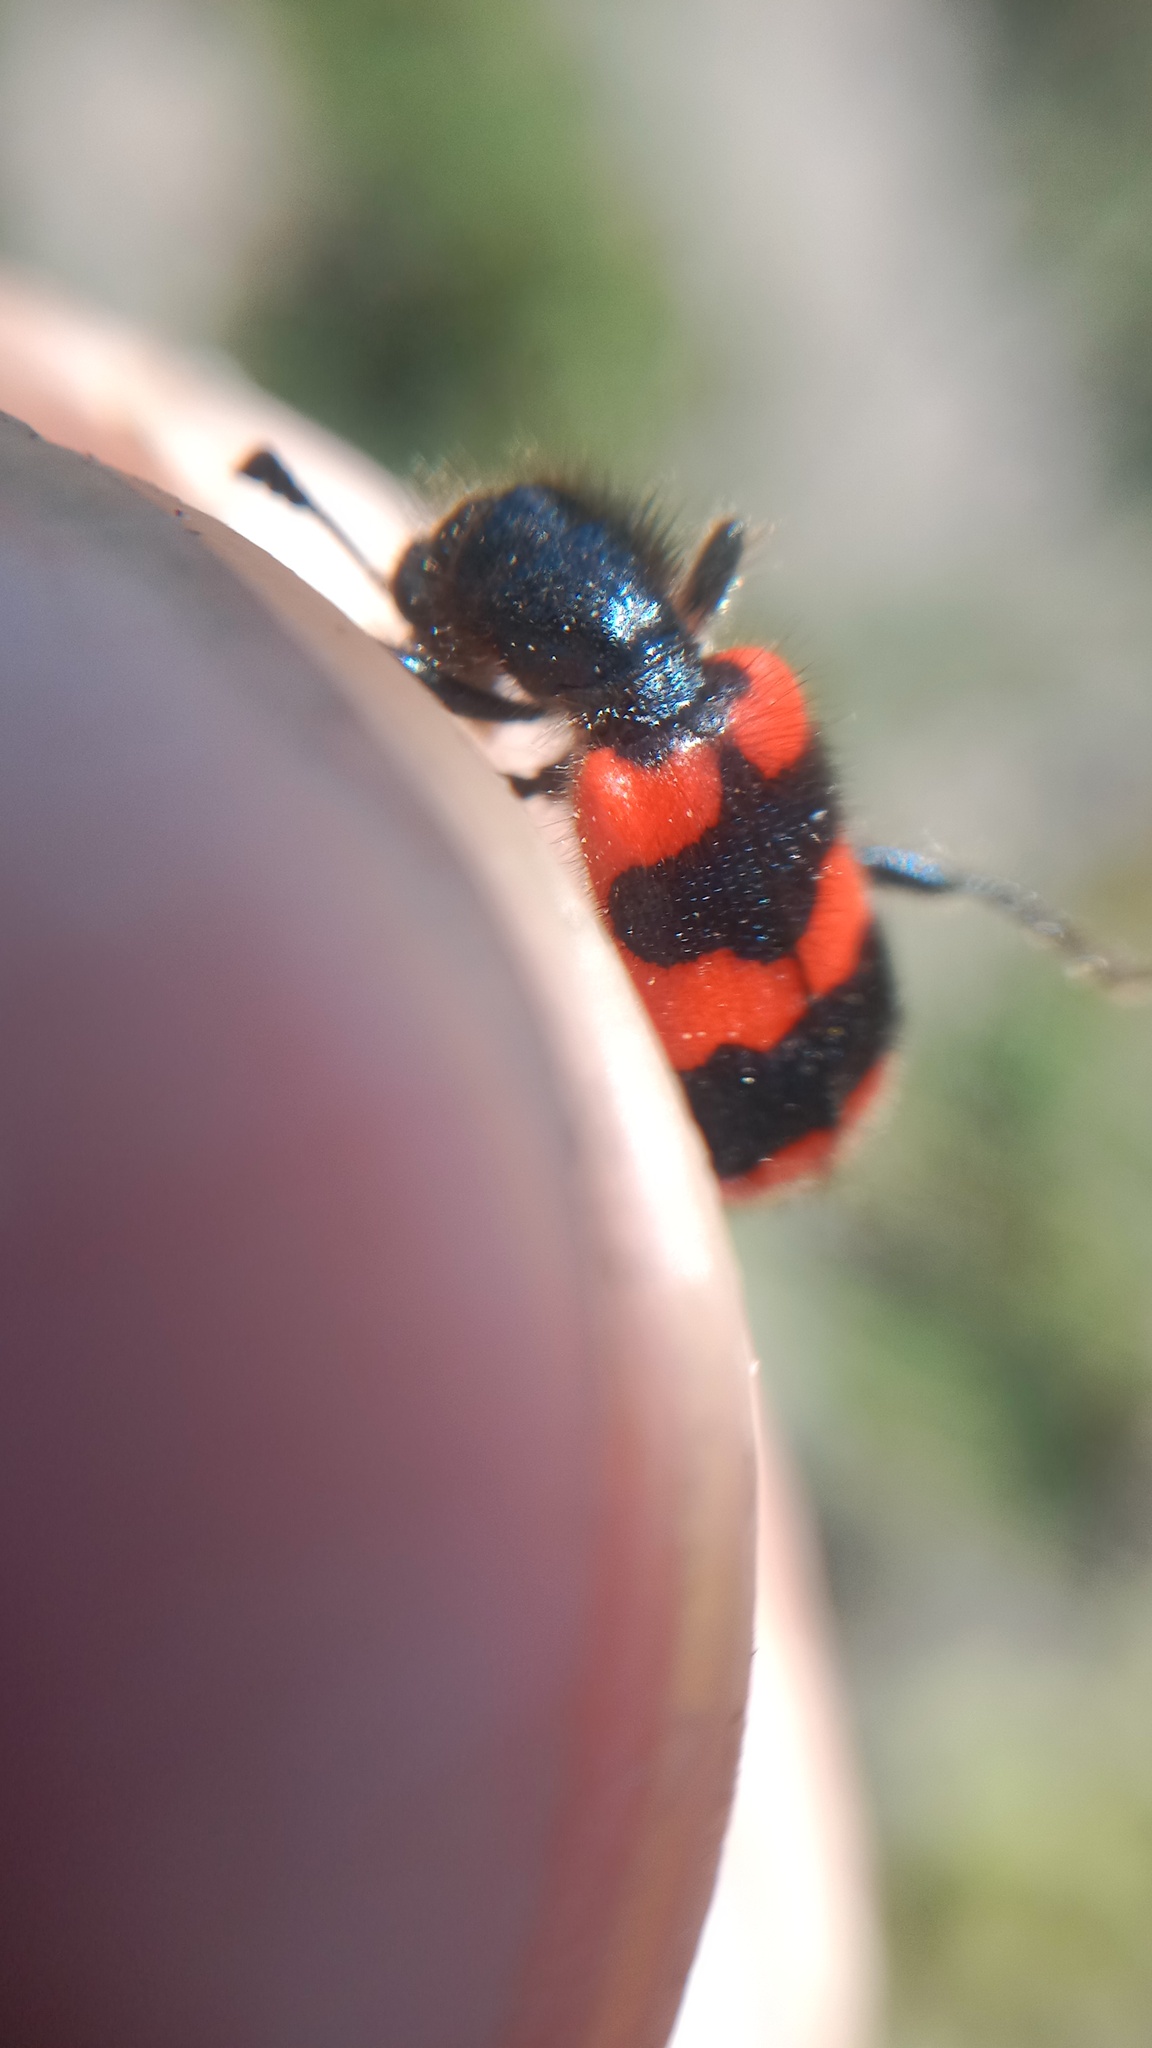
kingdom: Animalia
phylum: Arthropoda
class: Insecta
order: Coleoptera
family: Cleridae
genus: Trichodes
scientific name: Trichodes apiarius
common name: Bee-eating beetle
